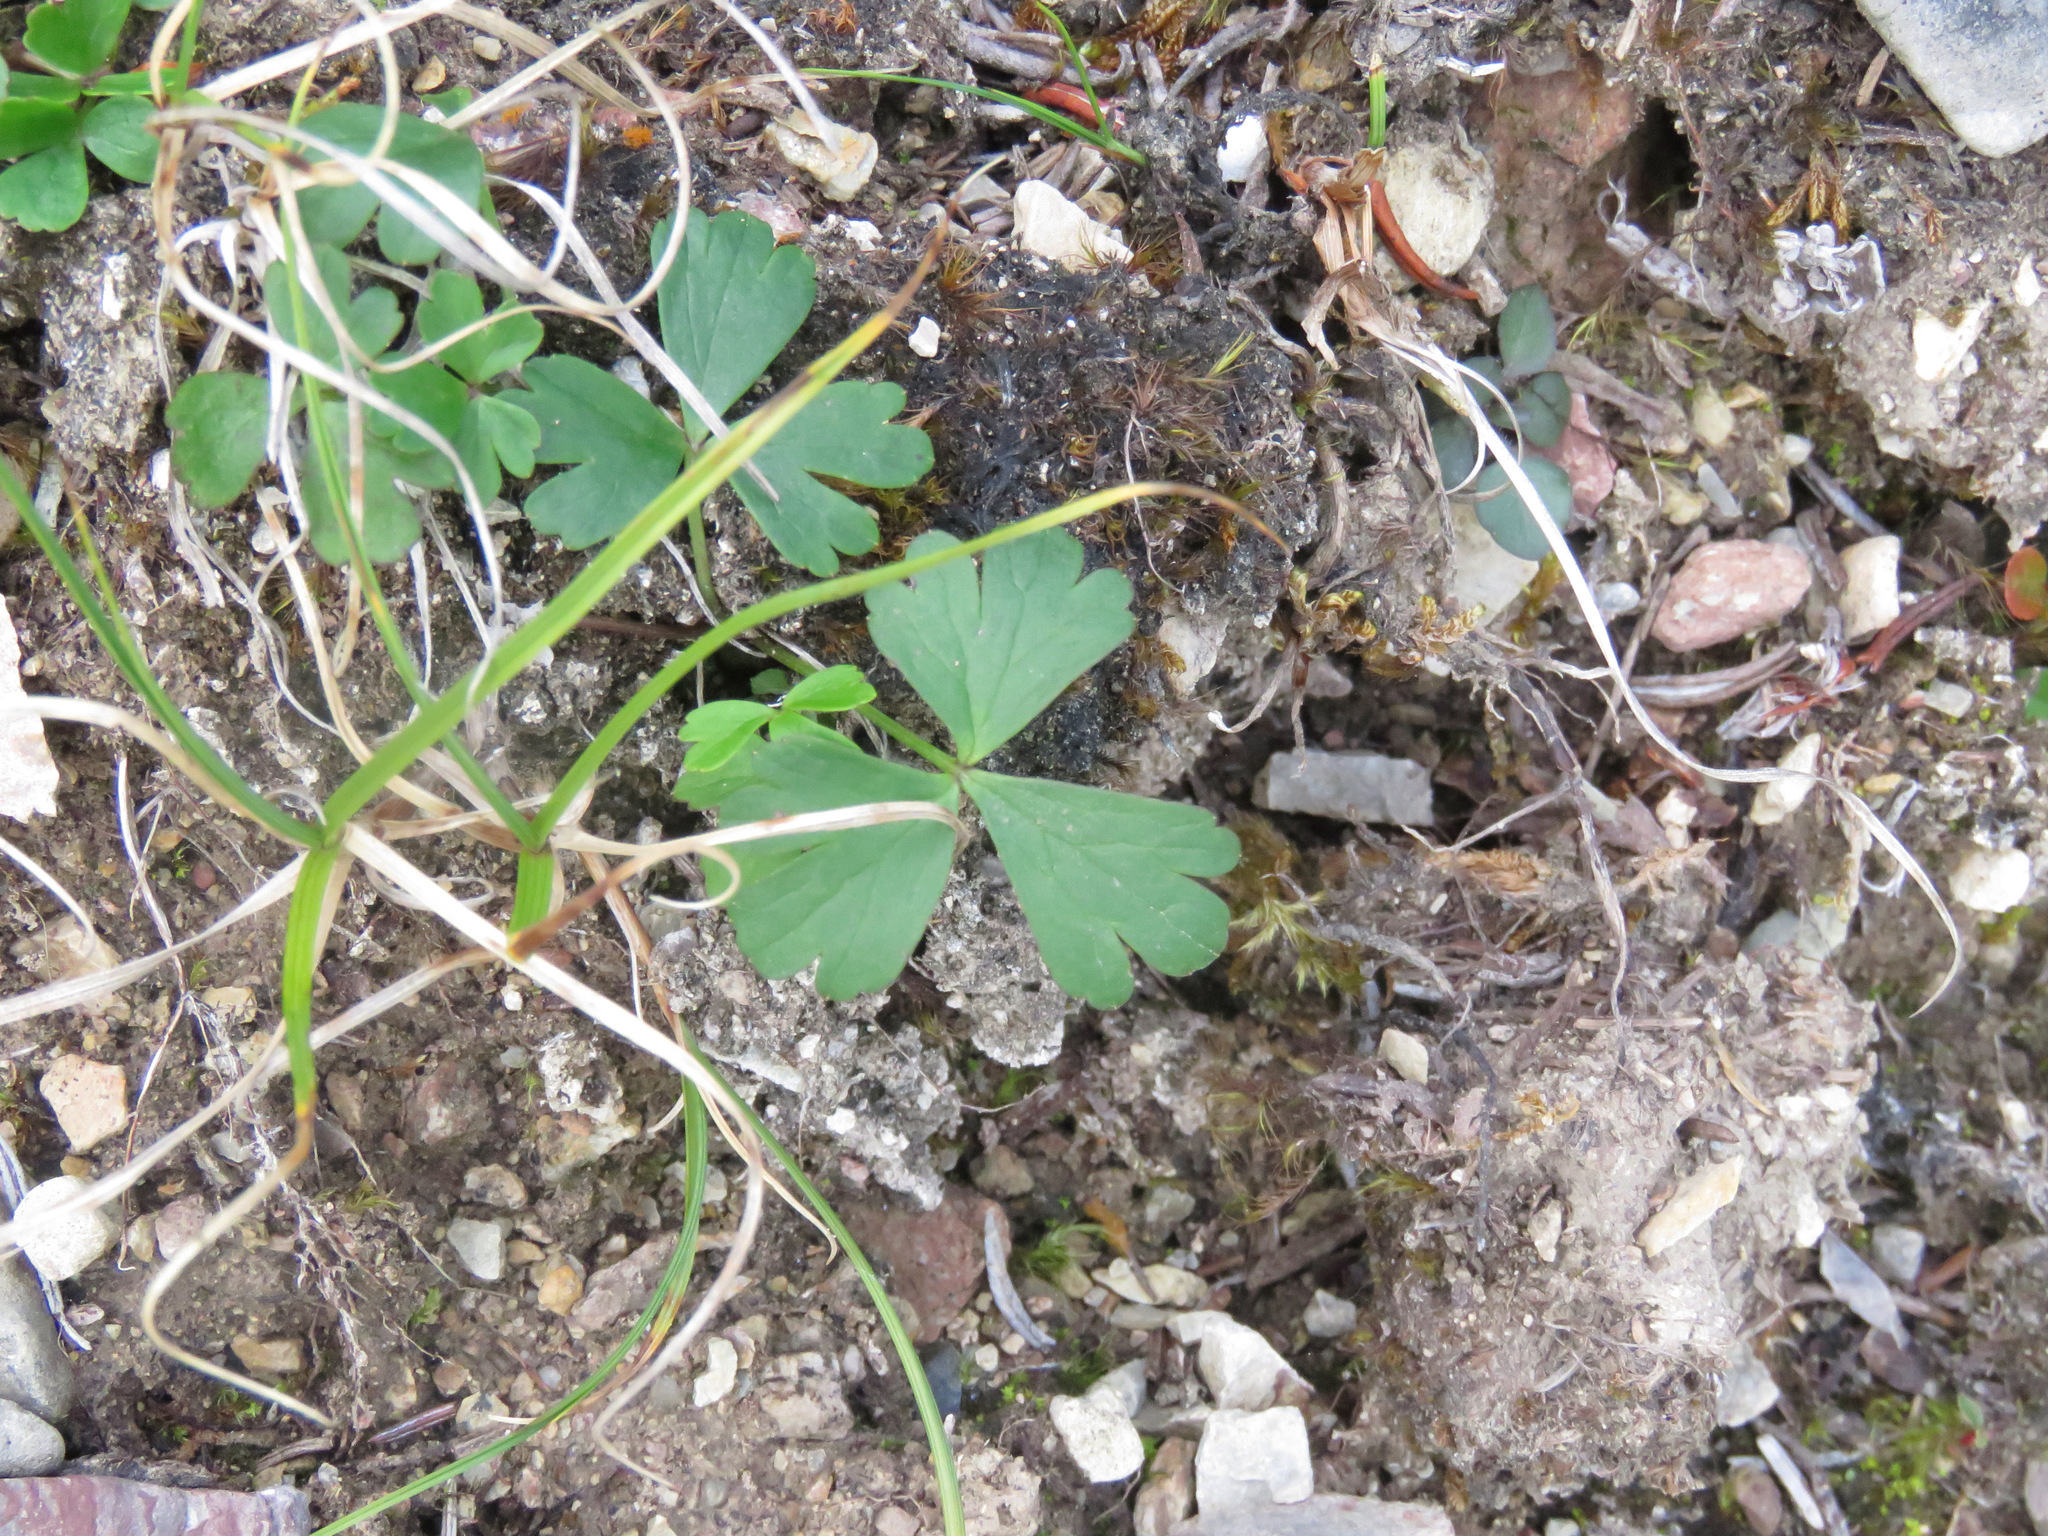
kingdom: Plantae
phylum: Tracheophyta
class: Magnoliopsida
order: Ranunculales
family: Ranunculaceae
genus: Anemone
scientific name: Anemone parviflora
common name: Northern anemone
